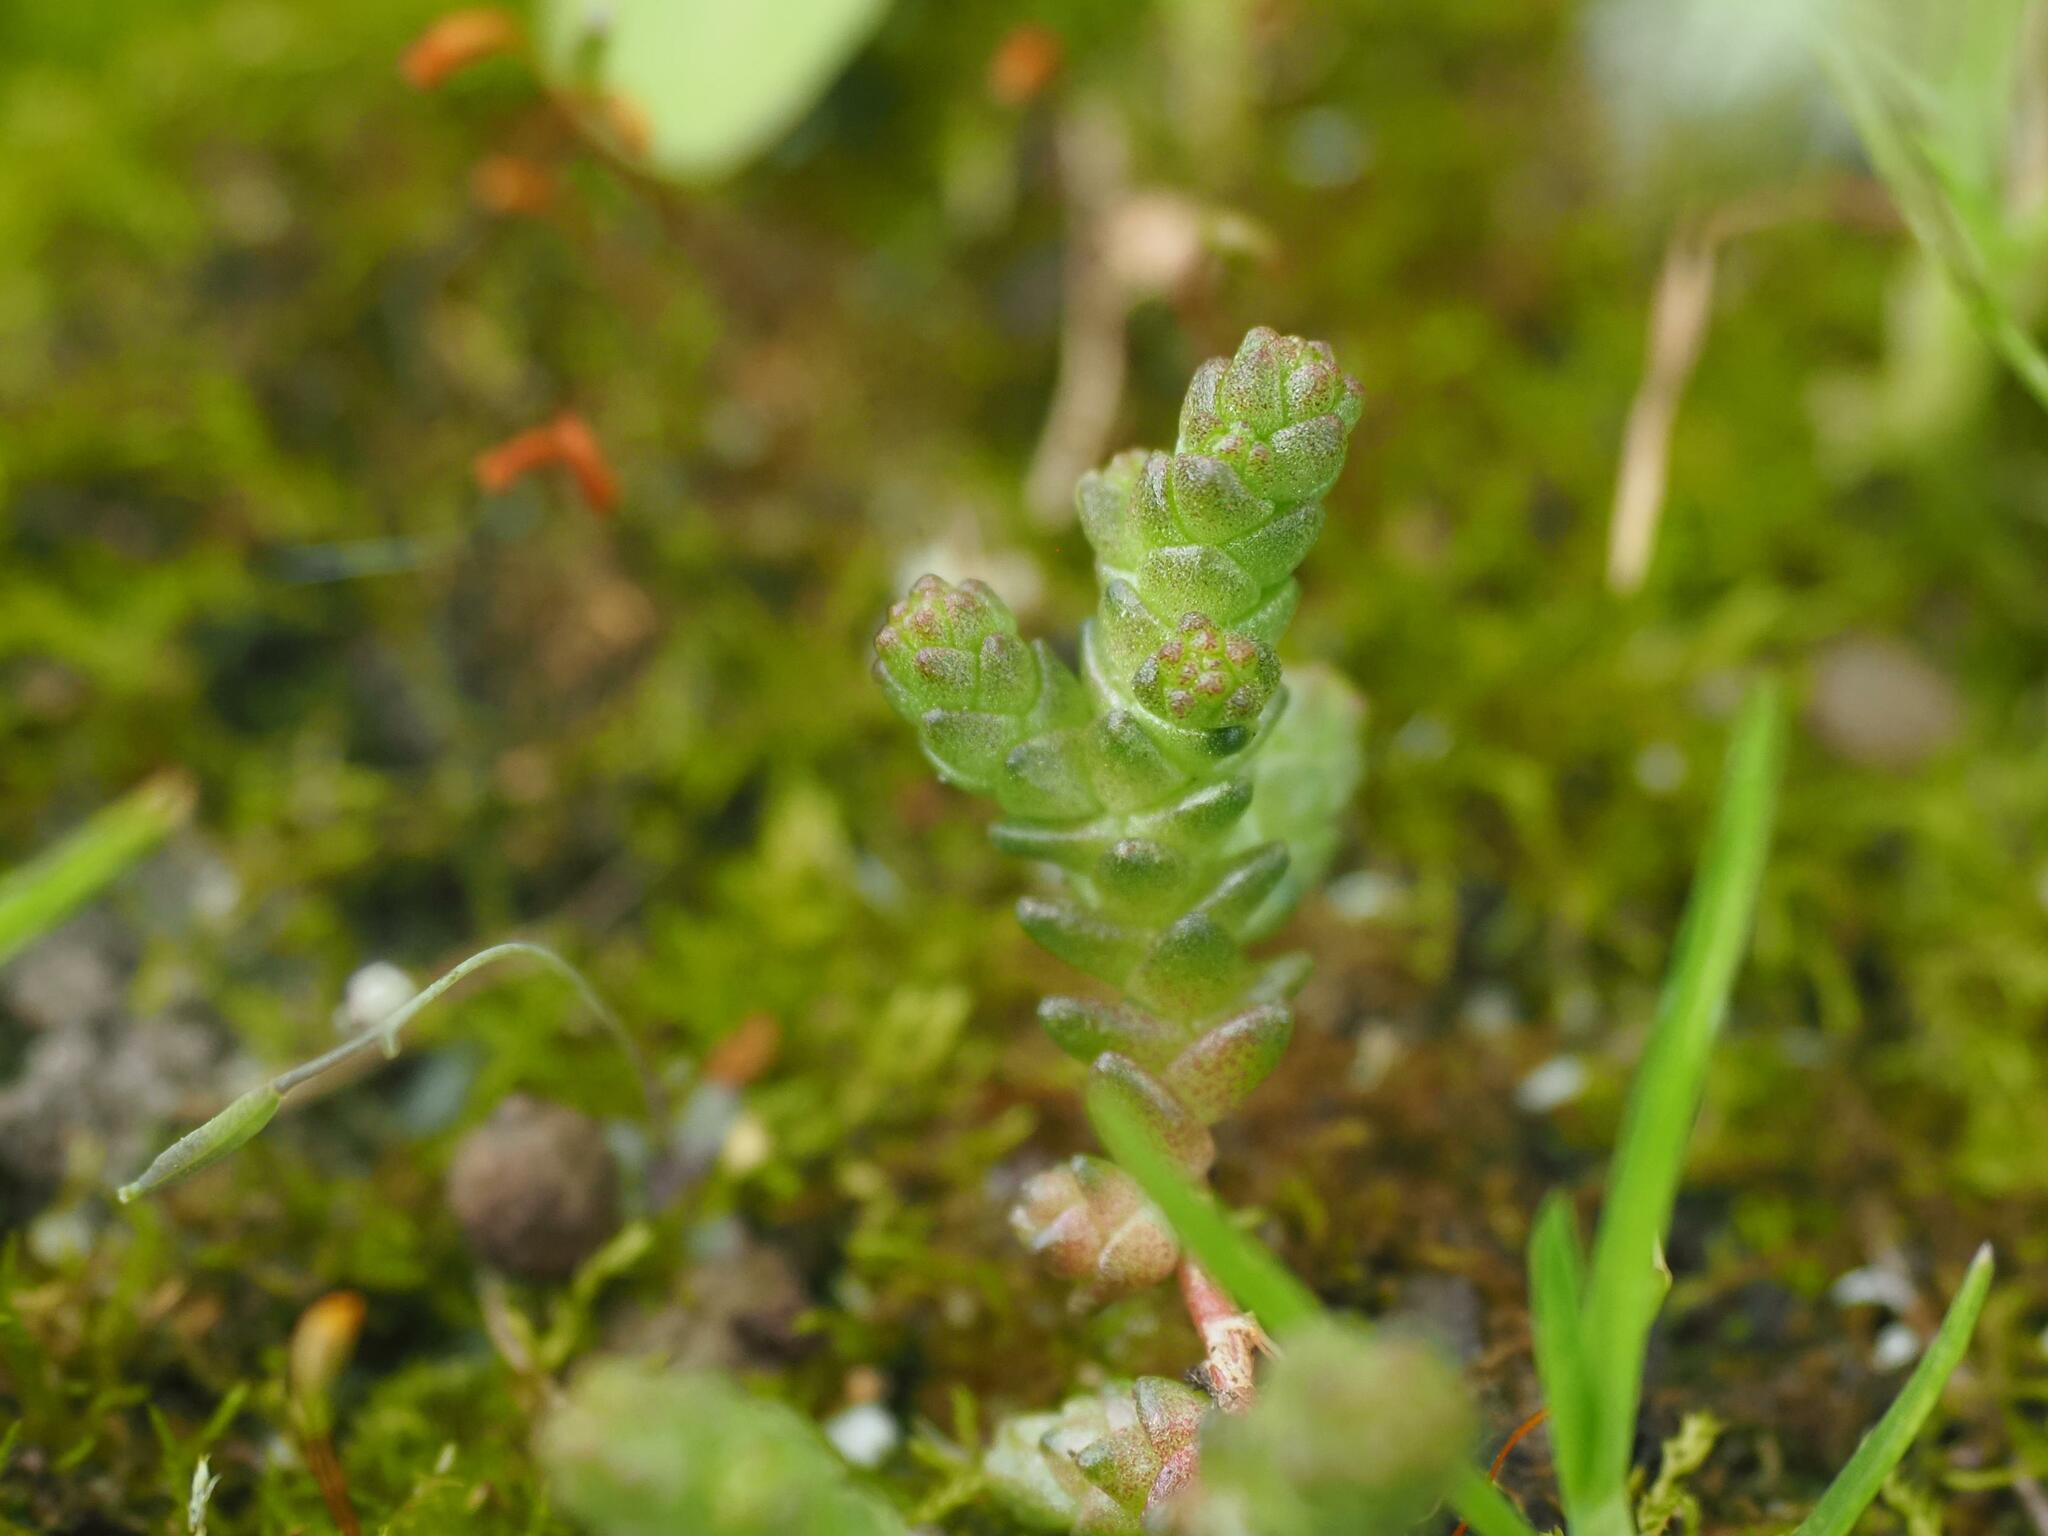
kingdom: Plantae
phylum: Tracheophyta
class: Magnoliopsida
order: Saxifragales
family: Crassulaceae
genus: Sedum
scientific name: Sedum acre
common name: Biting stonecrop
